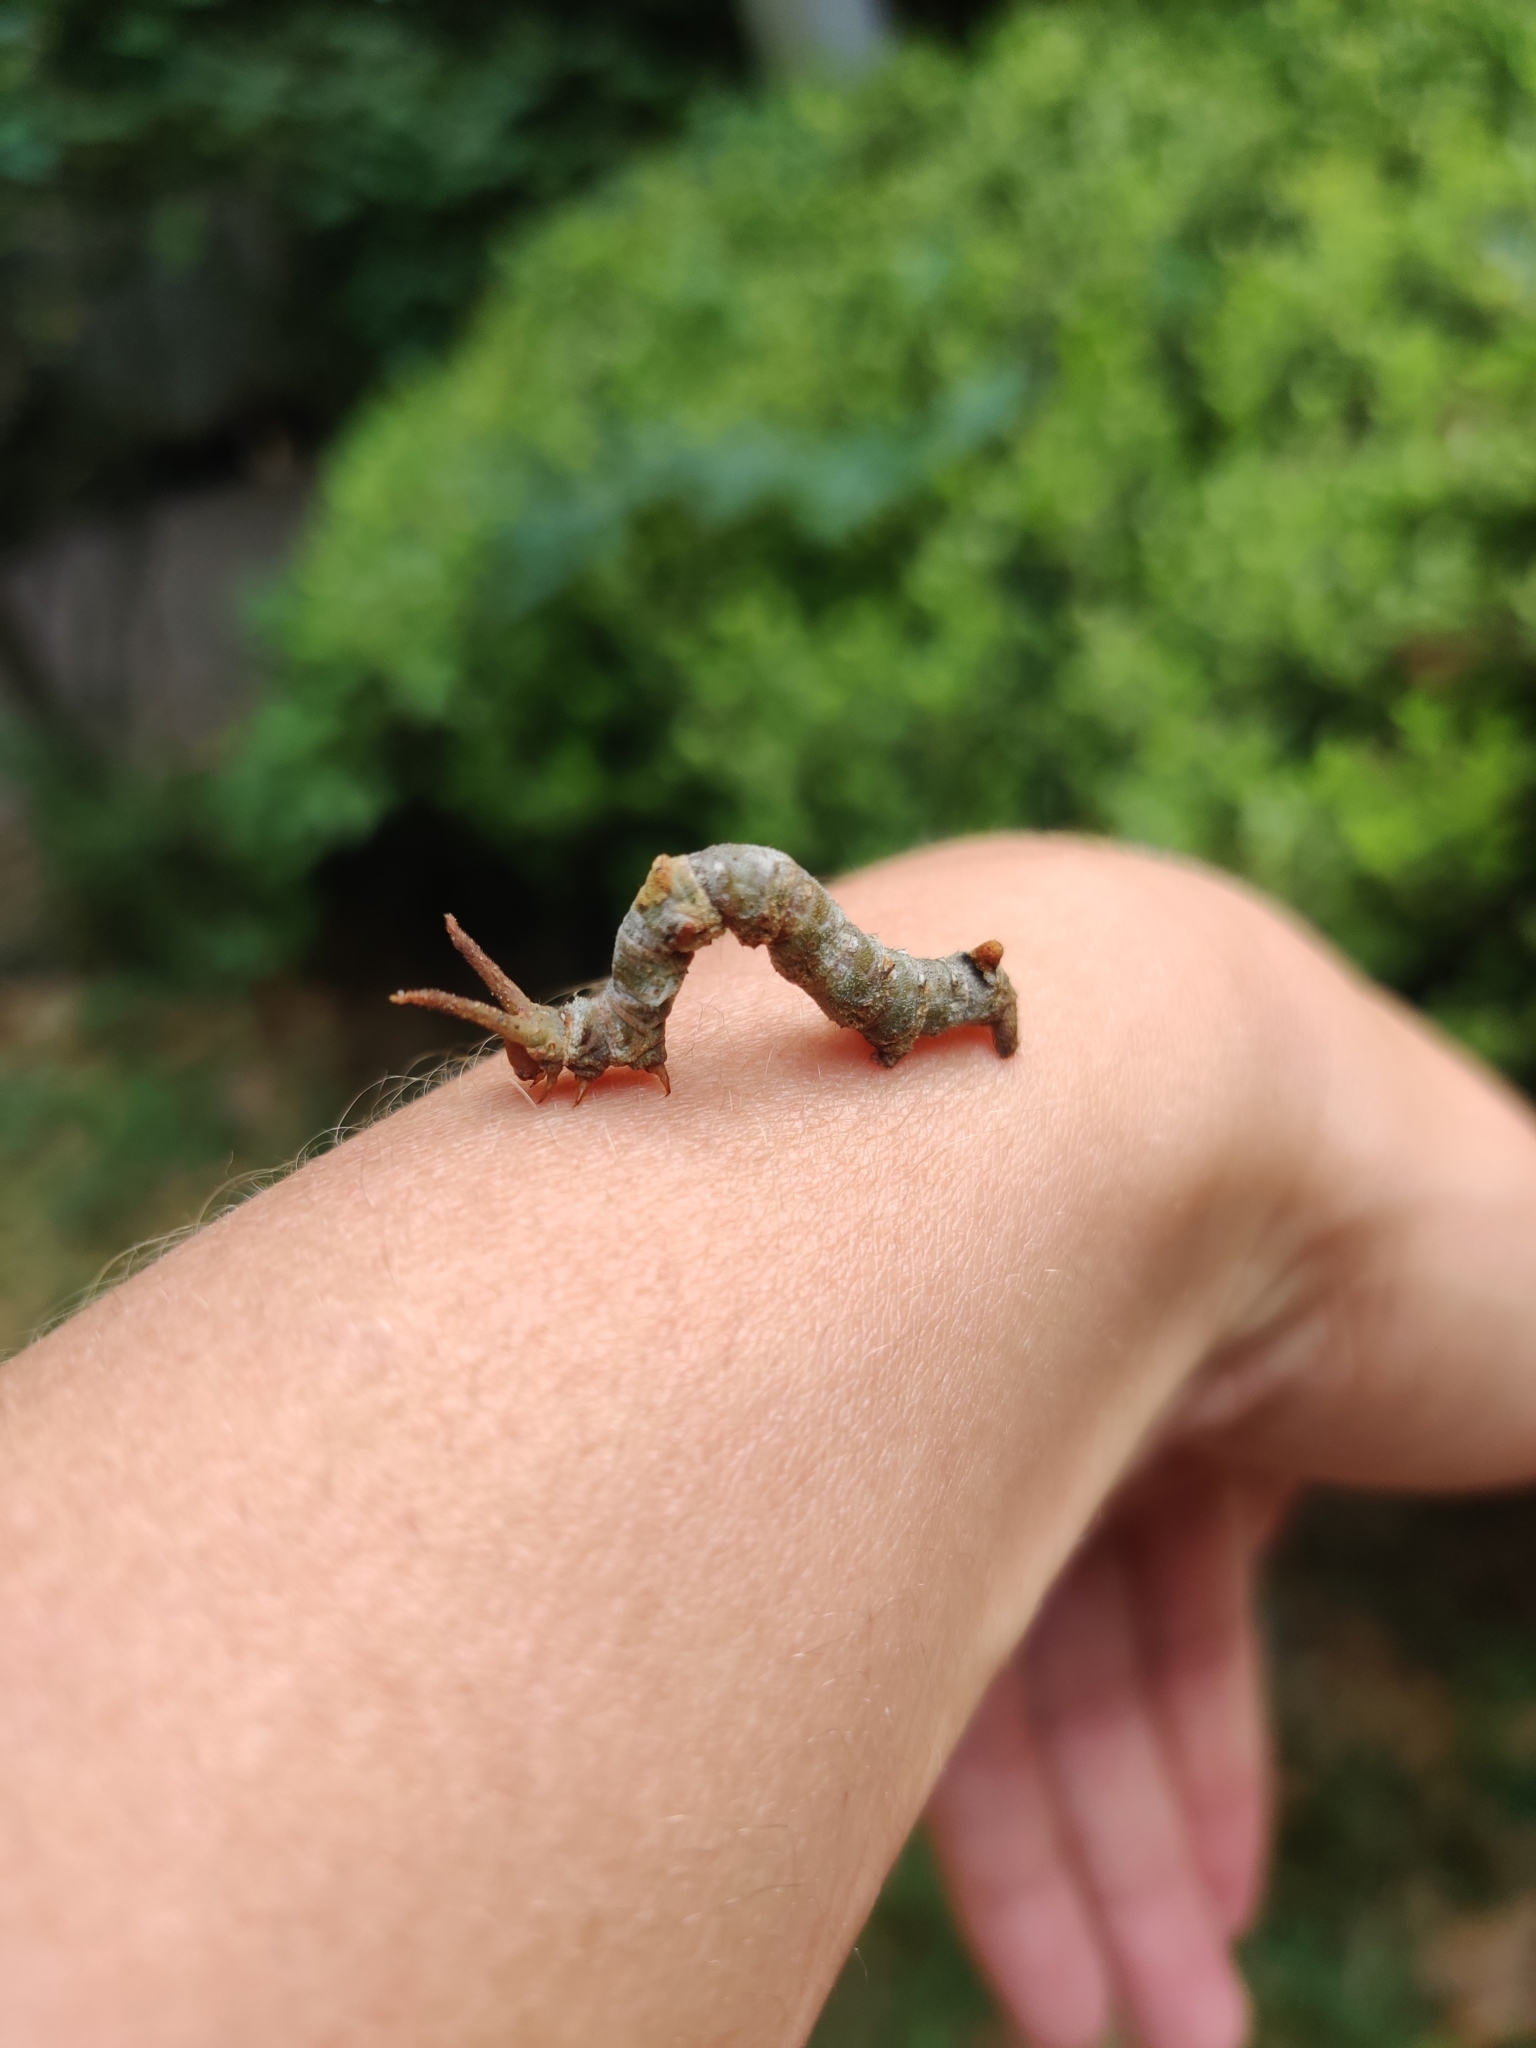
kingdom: Animalia
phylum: Arthropoda
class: Insecta
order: Lepidoptera
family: Geometridae
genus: Ceratonyx
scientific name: Ceratonyx satanaria
